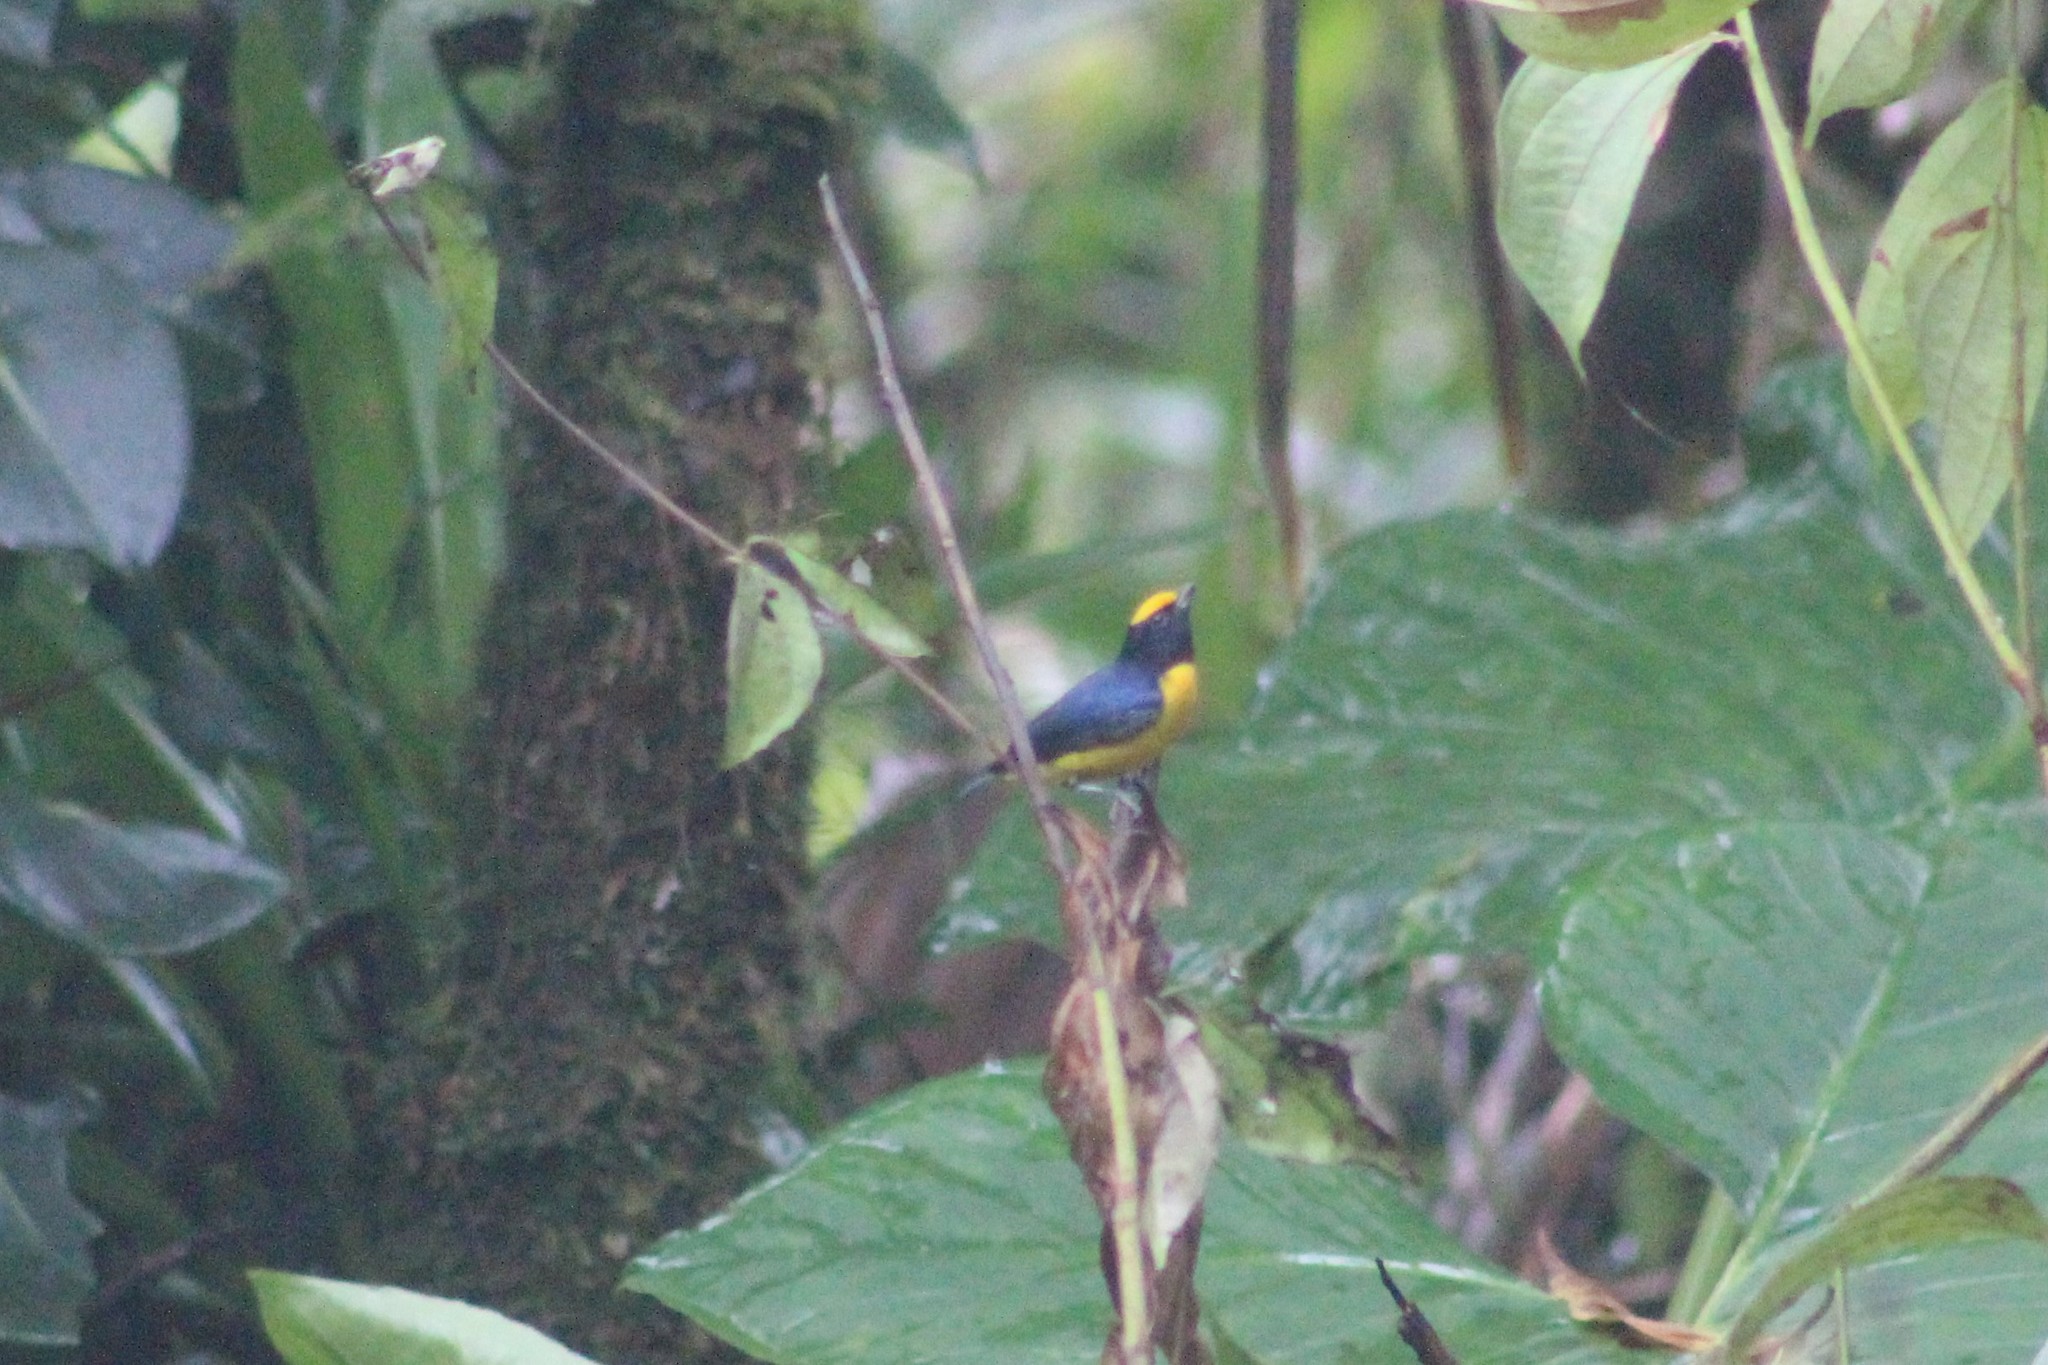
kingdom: Animalia
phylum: Chordata
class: Aves
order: Passeriformes
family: Fringillidae
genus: Euphonia
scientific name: Euphonia xanthogaster
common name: Orange-bellied euphonia
